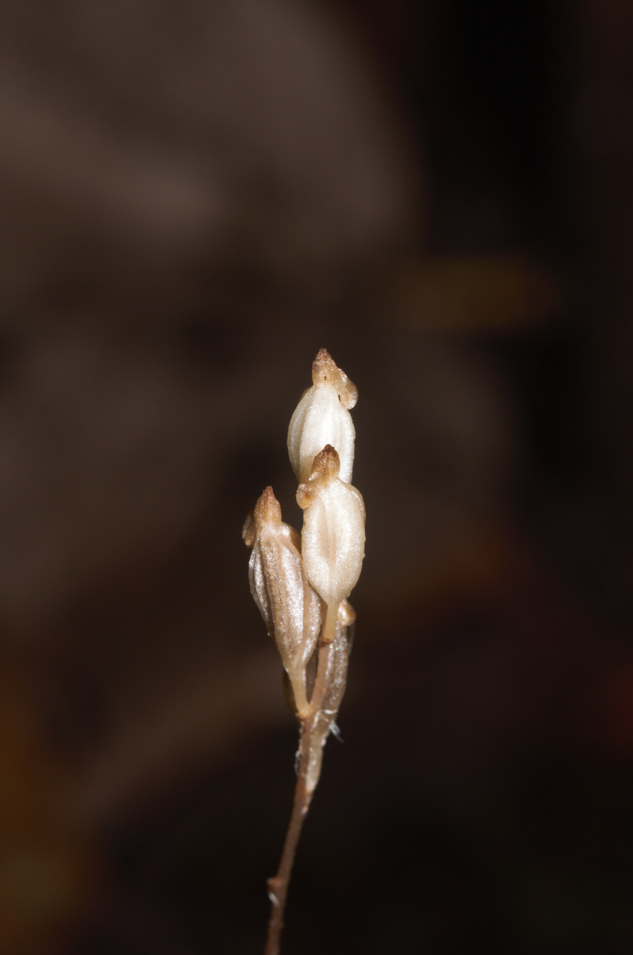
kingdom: Plantae
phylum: Tracheophyta
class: Liliopsida
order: Asparagales
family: Orchidaceae
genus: Wullschlaegelia
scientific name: Wullschlaegelia calcarata
